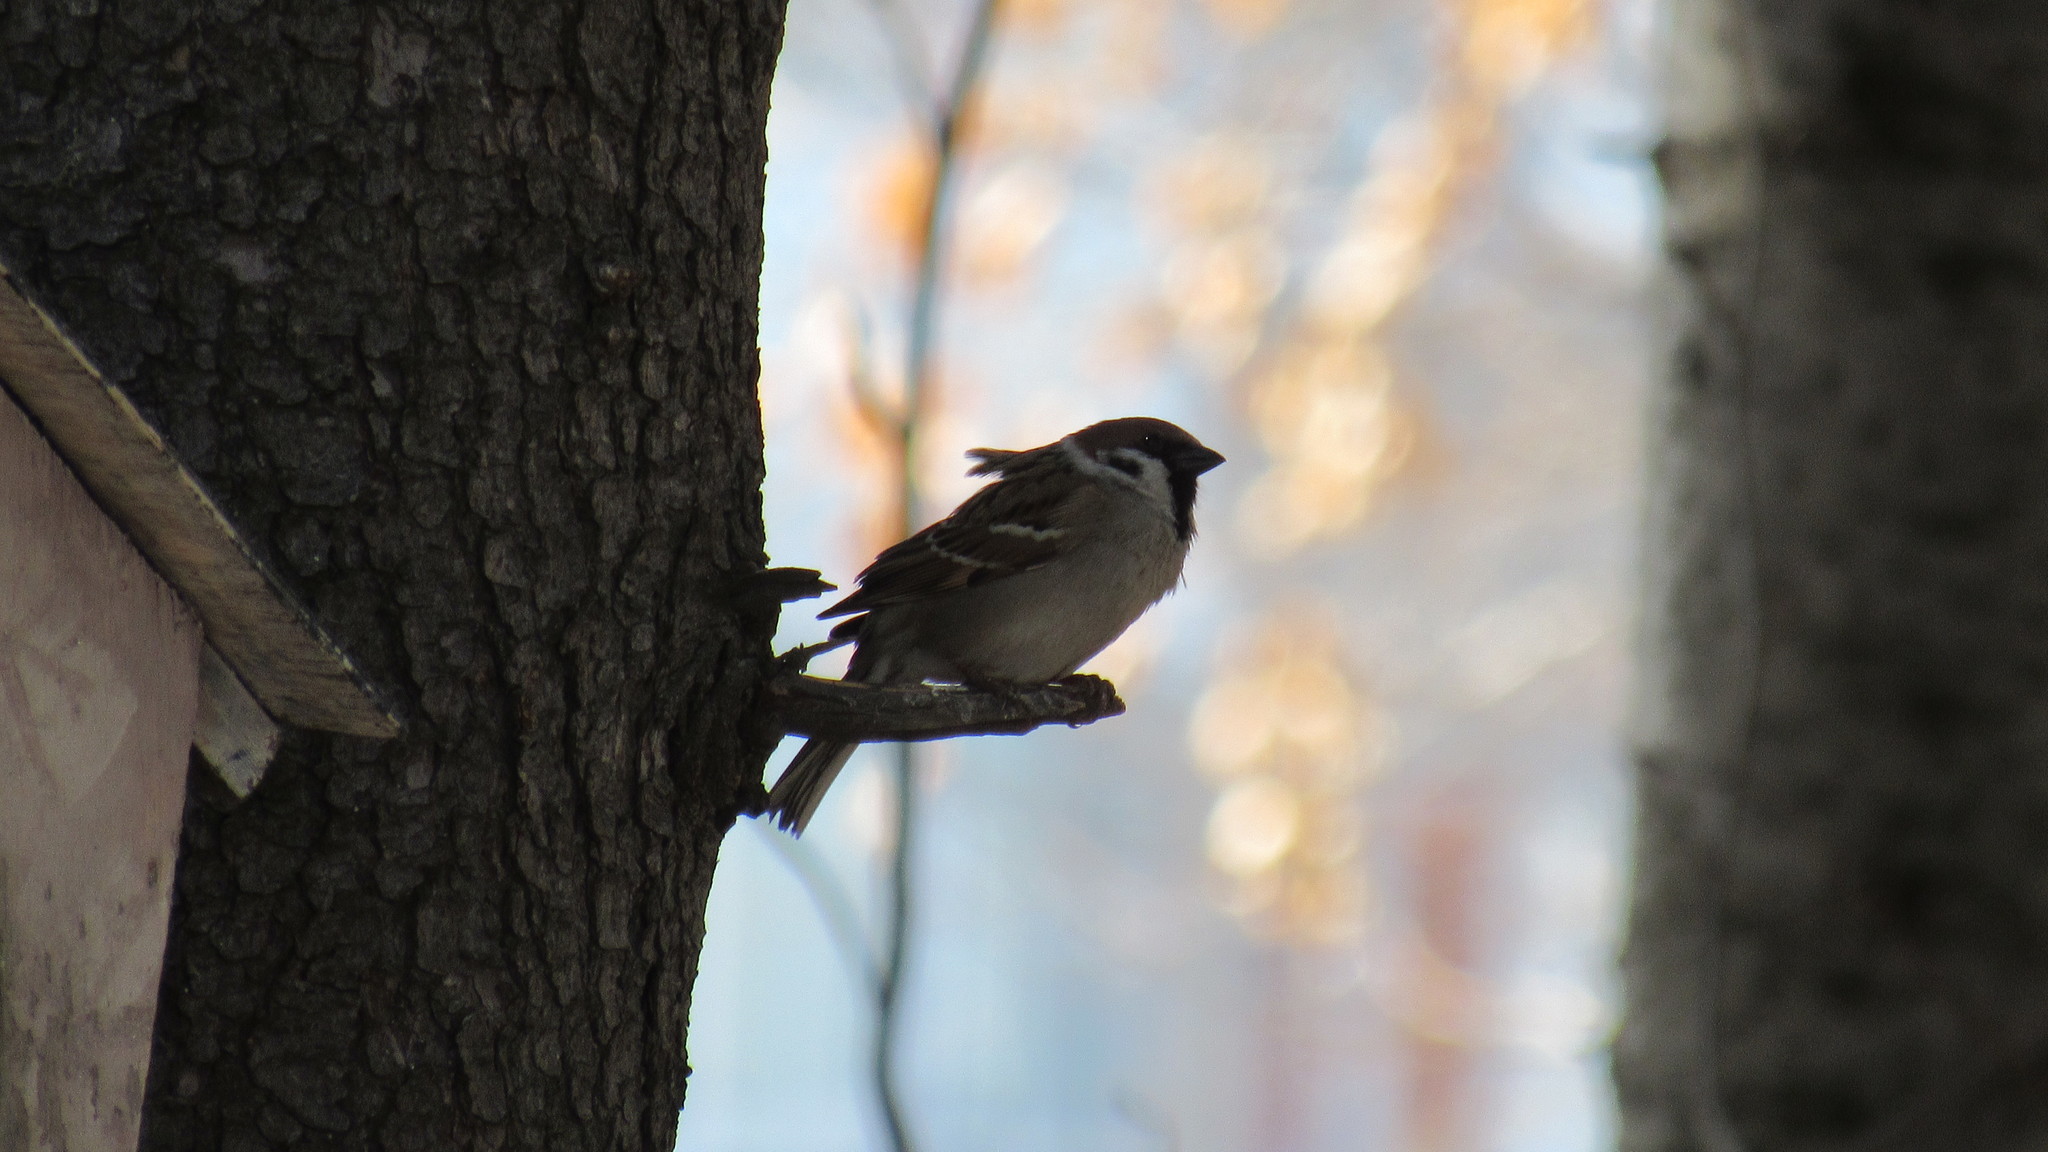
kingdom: Animalia
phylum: Chordata
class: Aves
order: Passeriformes
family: Passeridae
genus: Passer
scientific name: Passer montanus
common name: Eurasian tree sparrow
